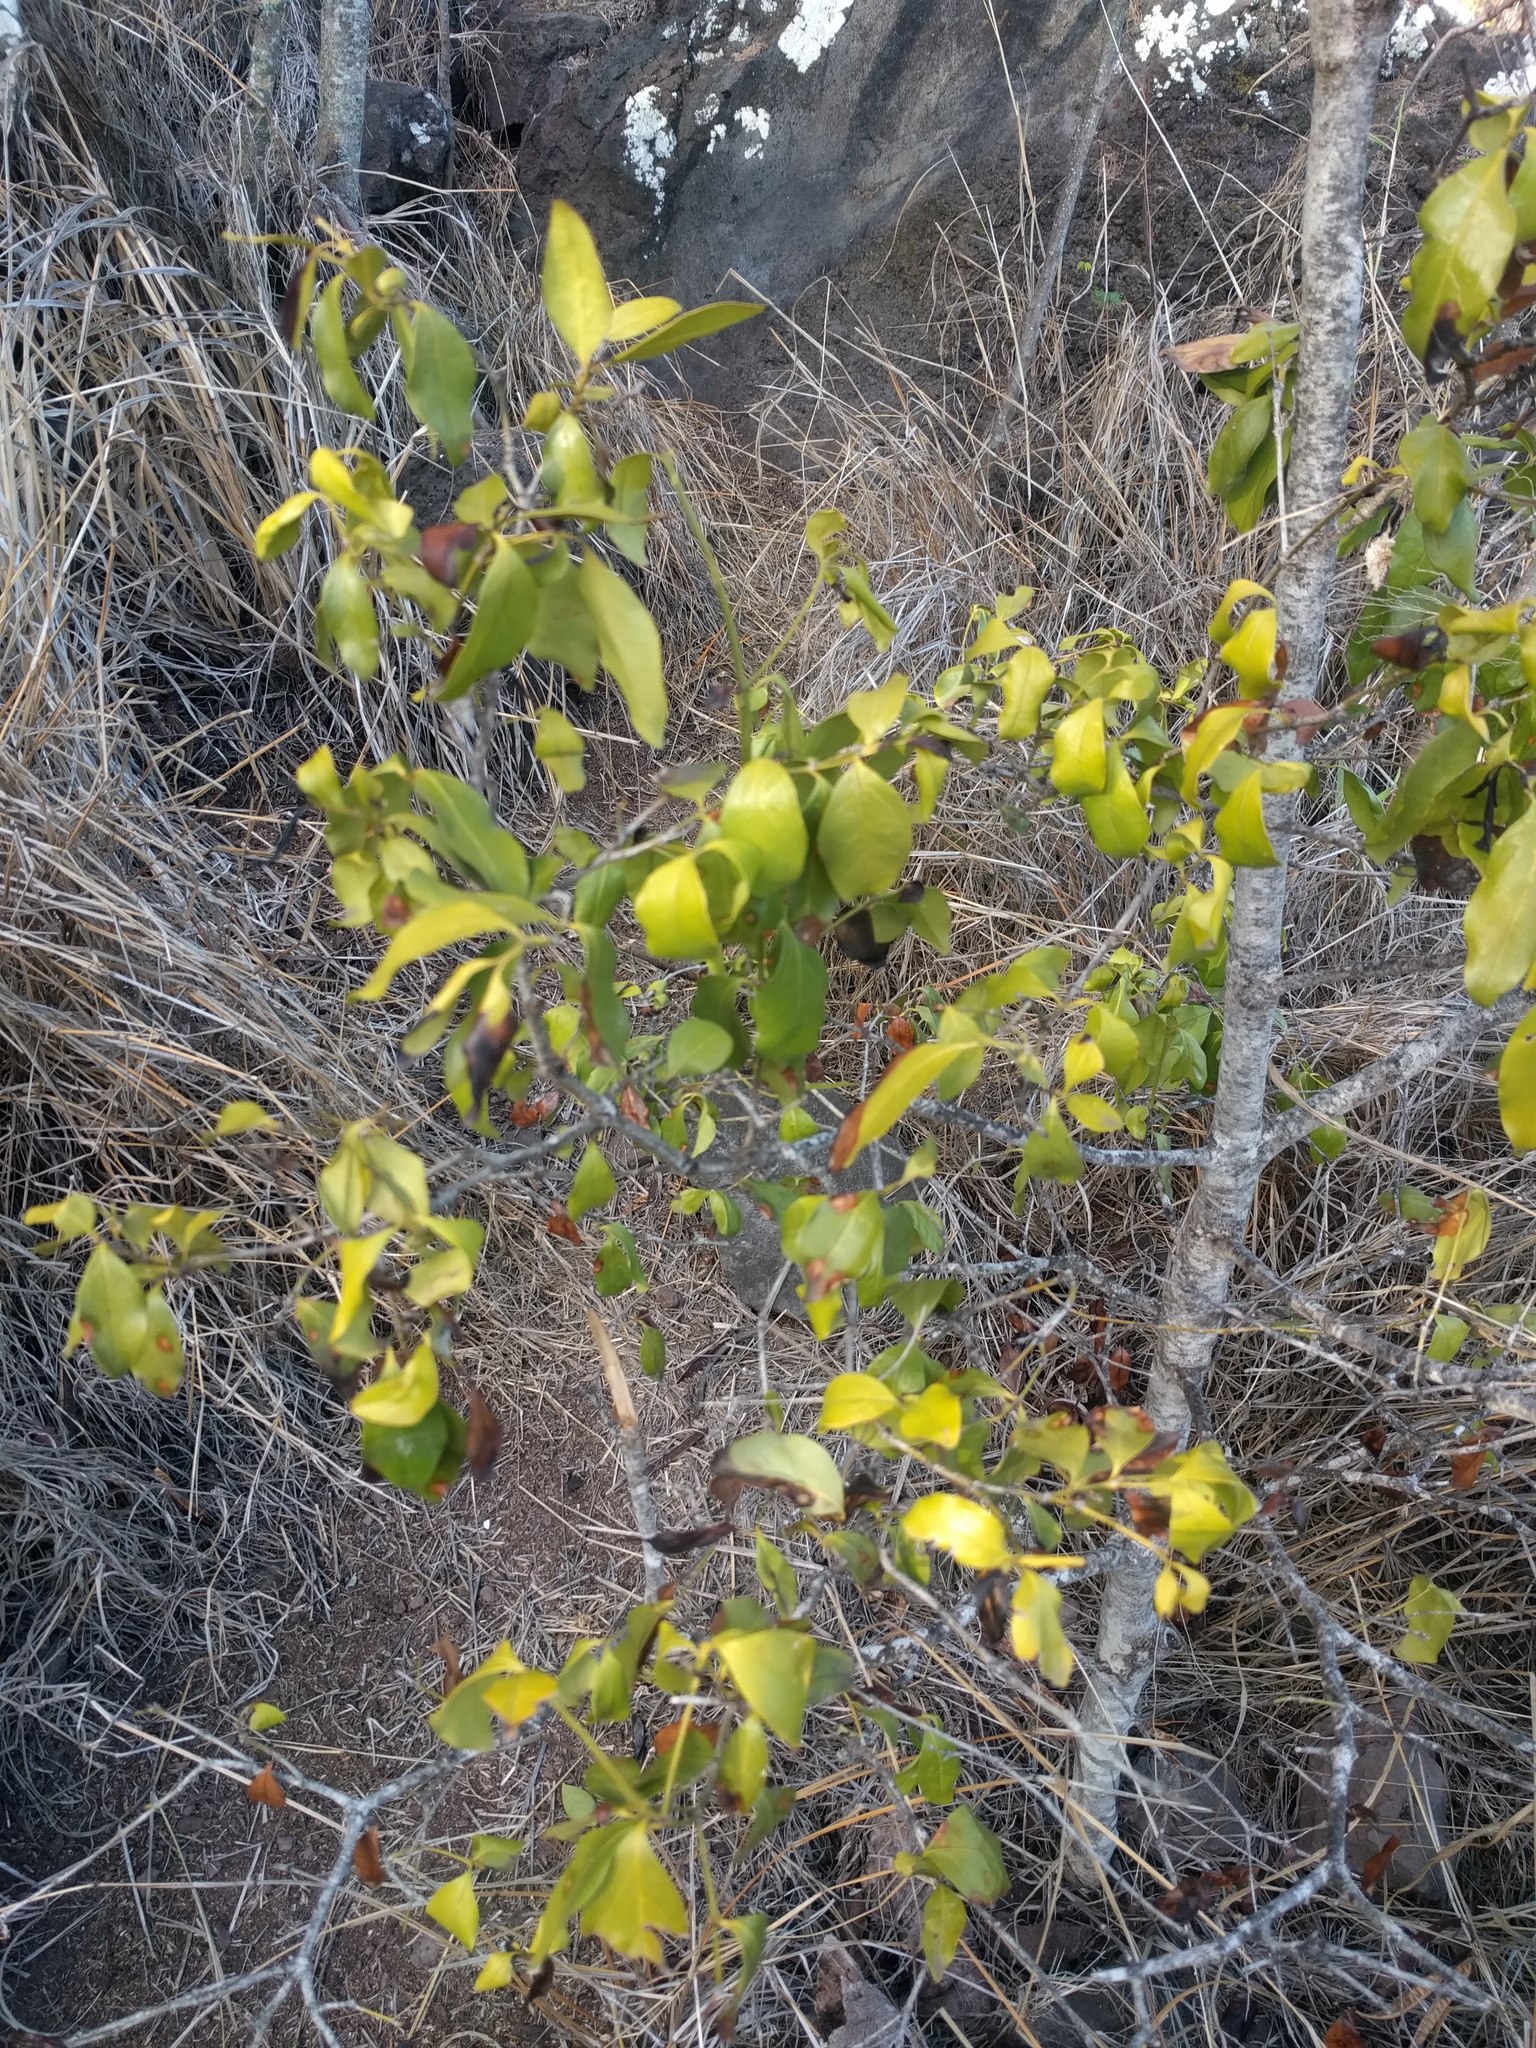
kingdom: Plantae
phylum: Tracheophyta
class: Magnoliopsida
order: Gentianales
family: Rubiaceae
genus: Psydrax
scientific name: Psydrax odoratus
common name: Alahe'e
